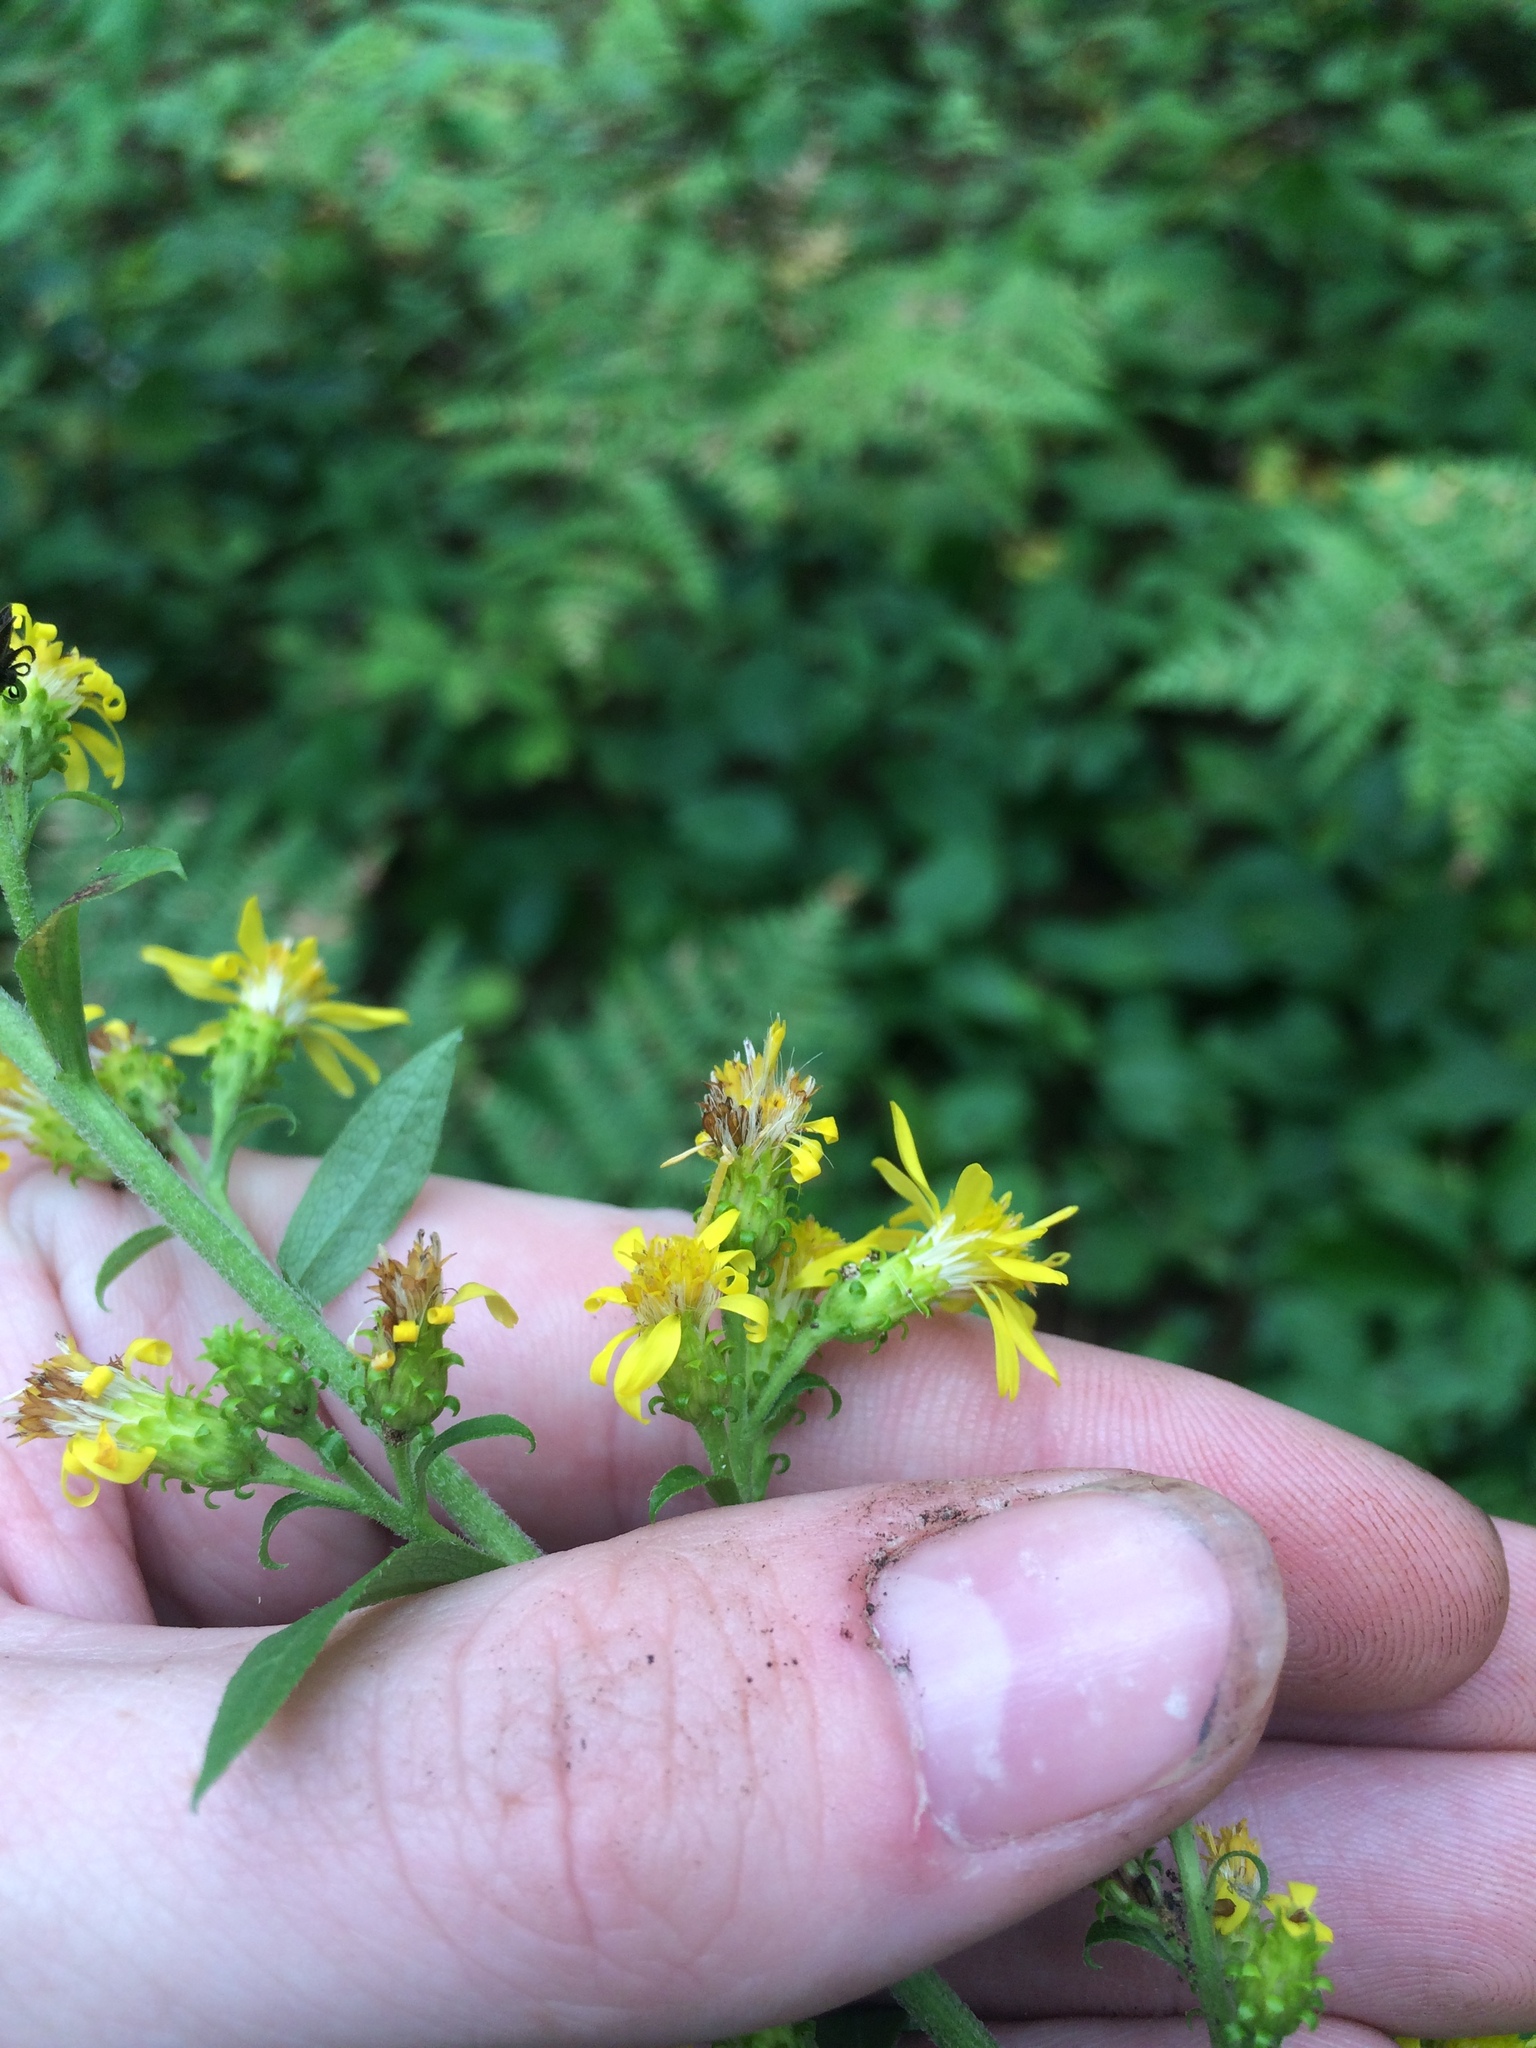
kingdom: Plantae
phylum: Tracheophyta
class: Magnoliopsida
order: Asterales
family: Asteraceae
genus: Solidago
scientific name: Solidago squarrosa
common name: Stout goldenrod
